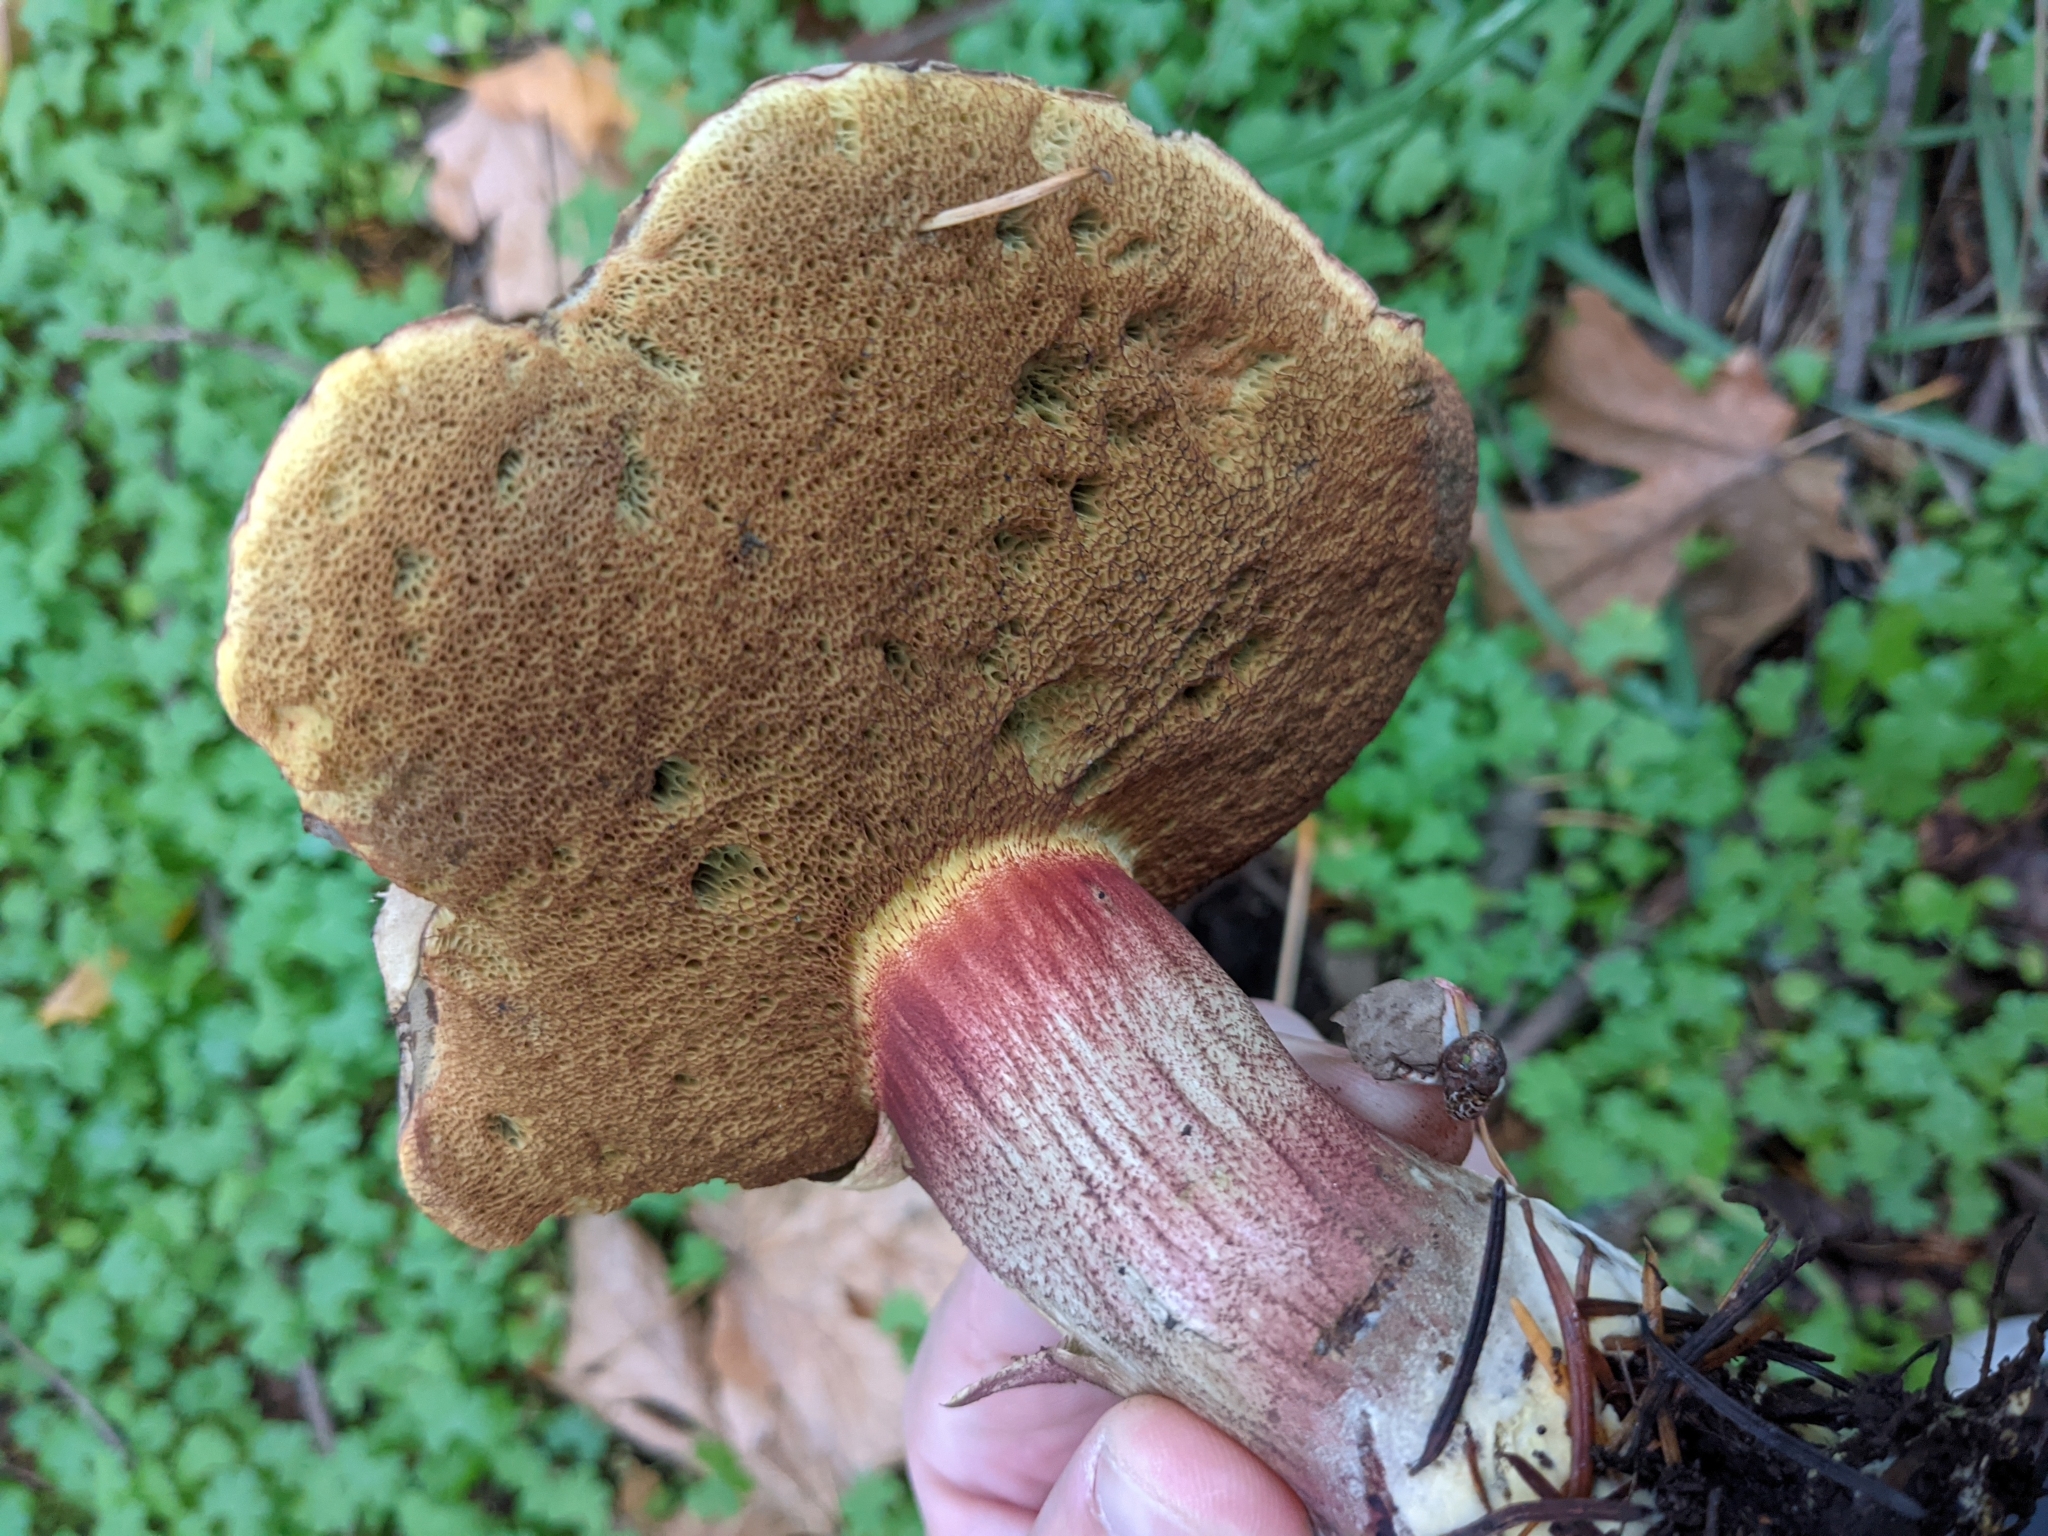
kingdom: Fungi
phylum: Basidiomycota
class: Agaricomycetes
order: Boletales
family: Boletaceae
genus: Xerocomellus
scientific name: Xerocomellus mendocinensis
